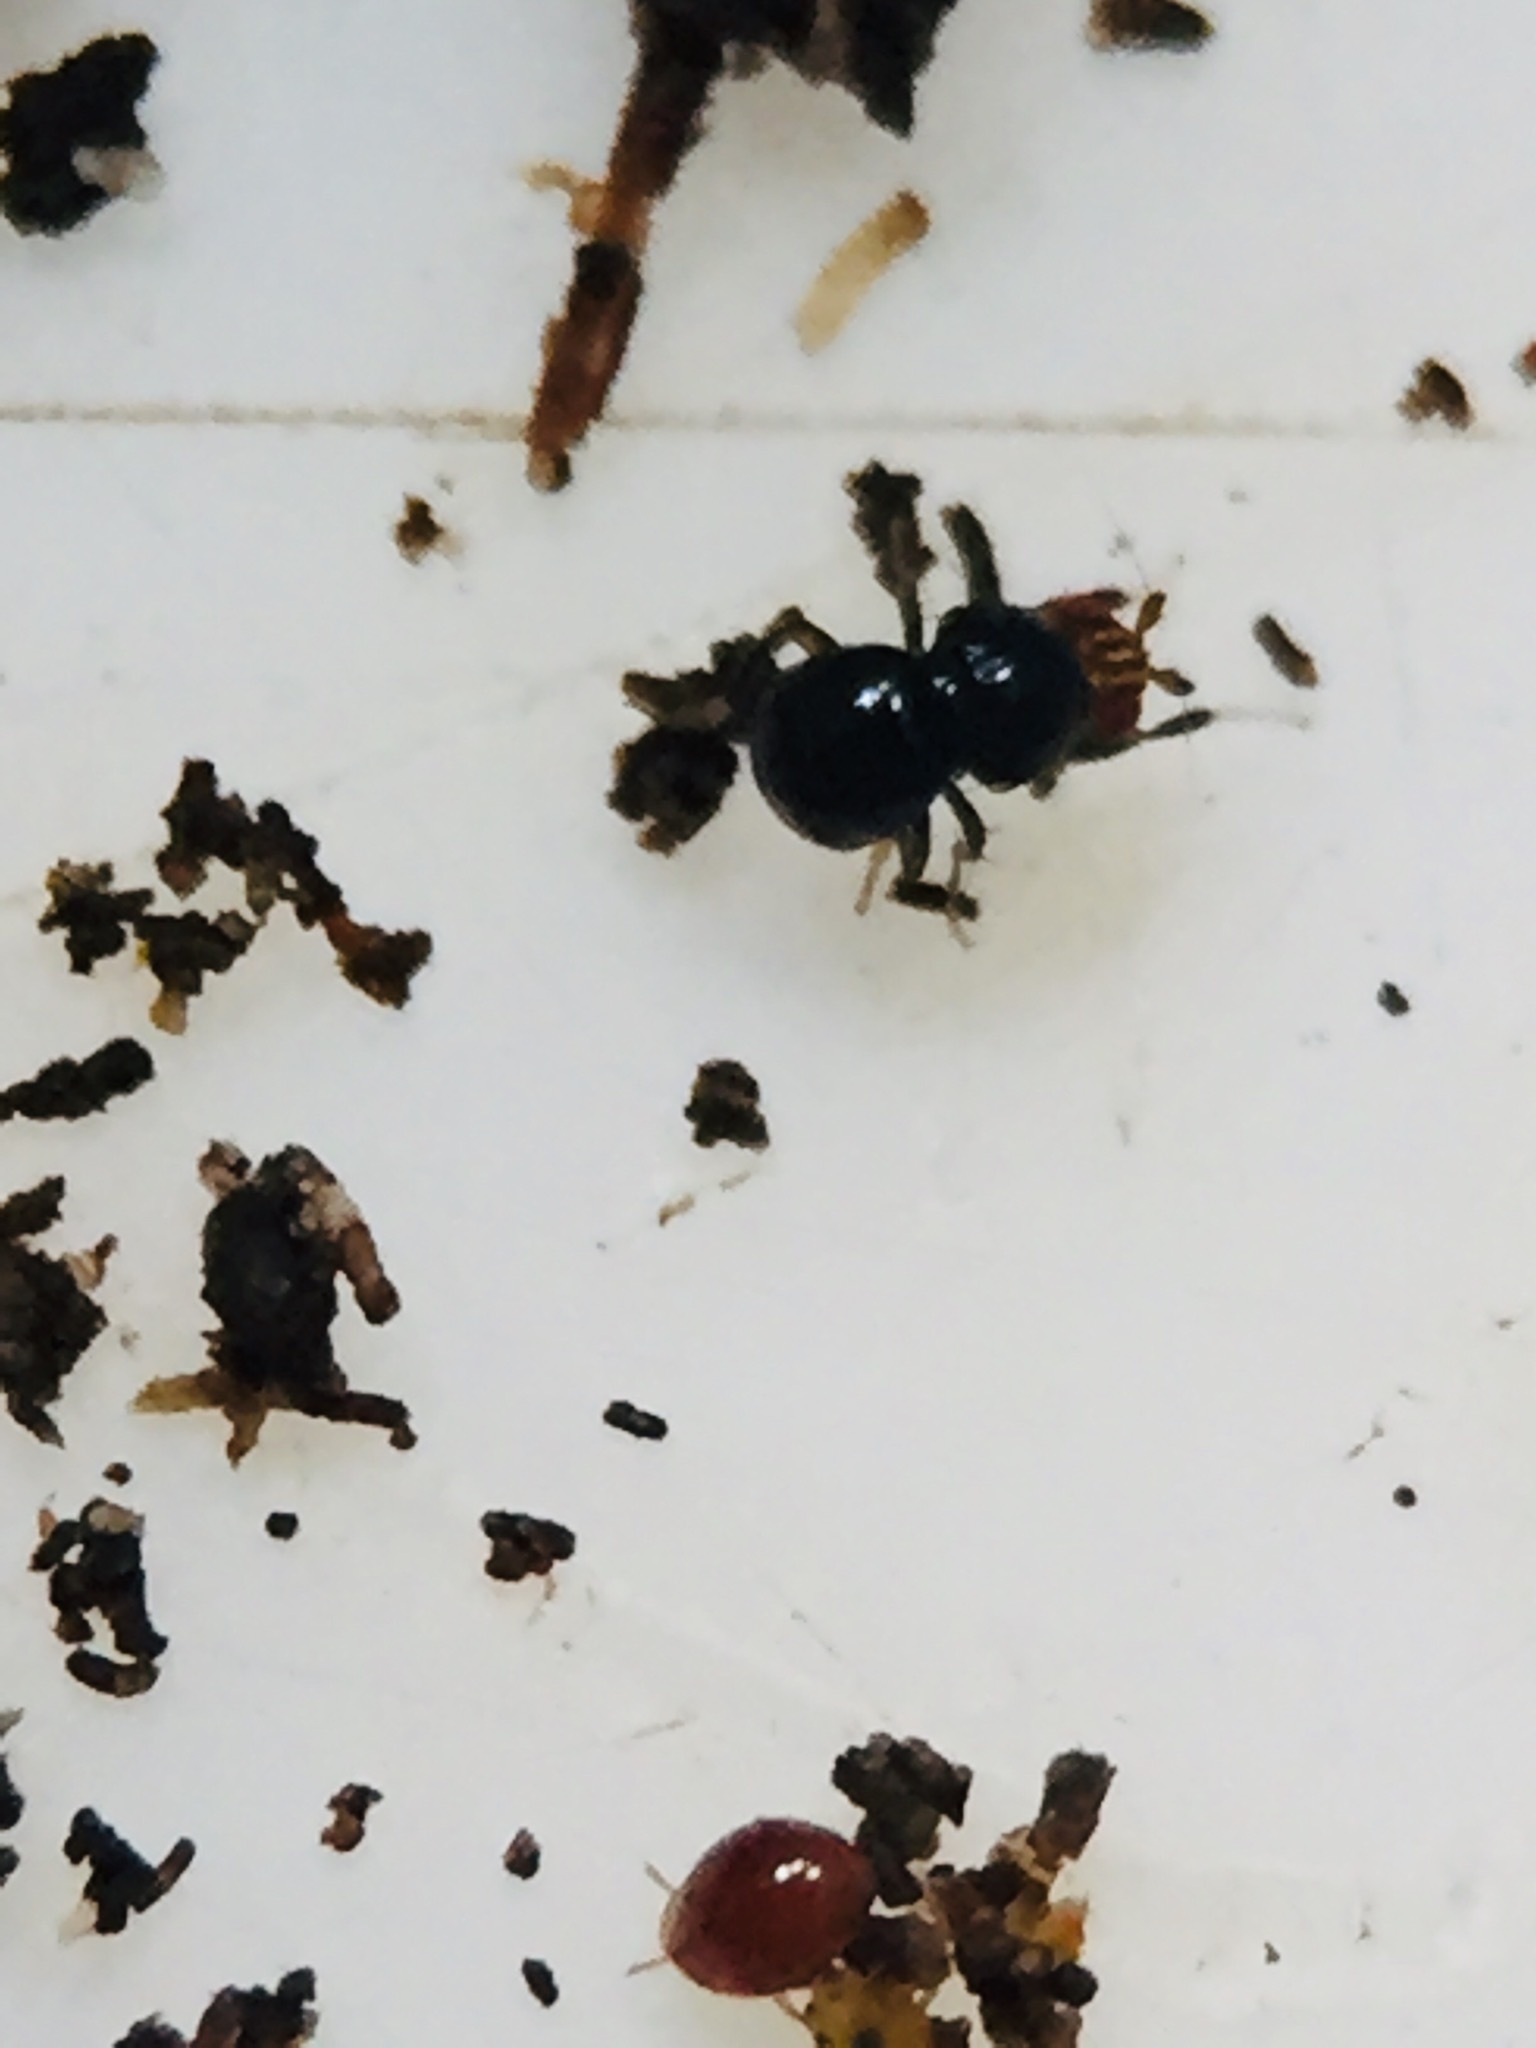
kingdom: Animalia
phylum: Arthropoda
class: Insecta
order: Diptera
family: Sphaeroceridae
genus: Howickia
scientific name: Howickia trilineata
